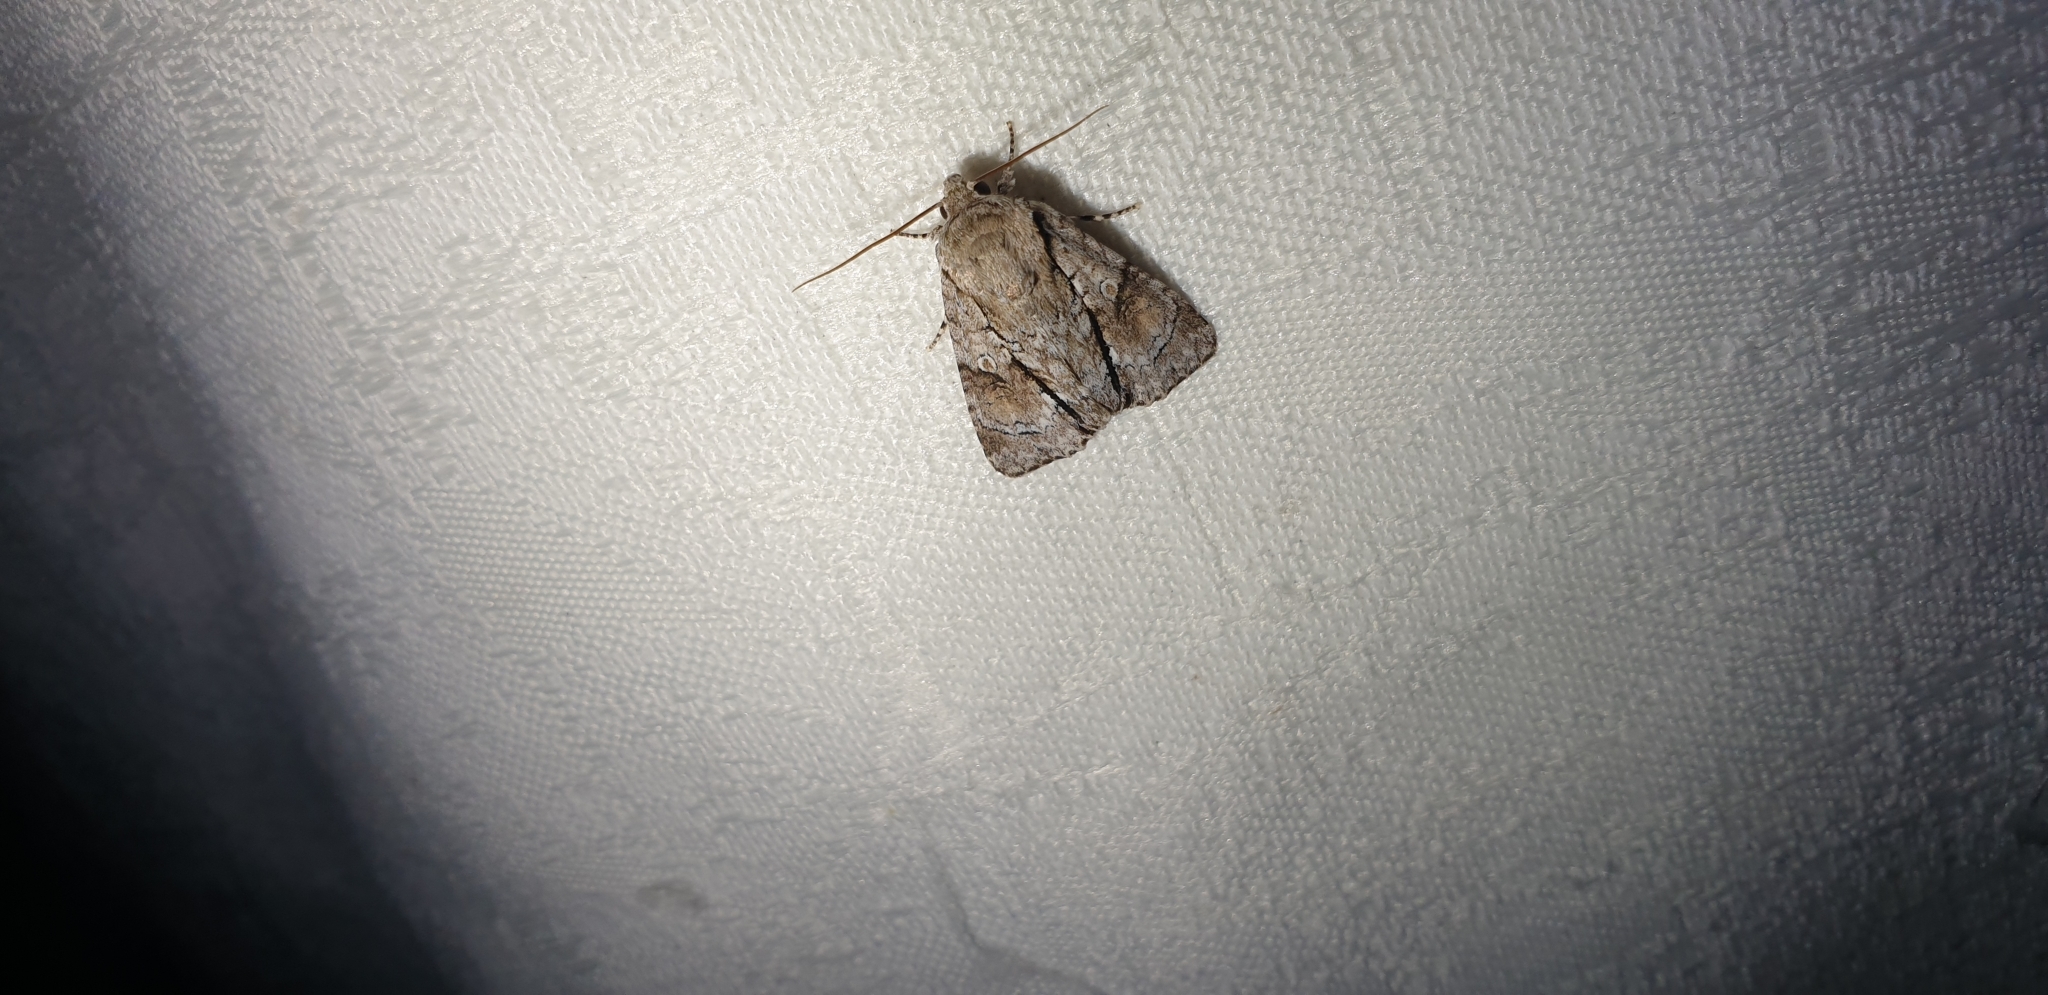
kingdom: Animalia
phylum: Arthropoda
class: Insecta
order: Lepidoptera
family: Noctuidae
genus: Fascionycta
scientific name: Fascionycta fasciata
